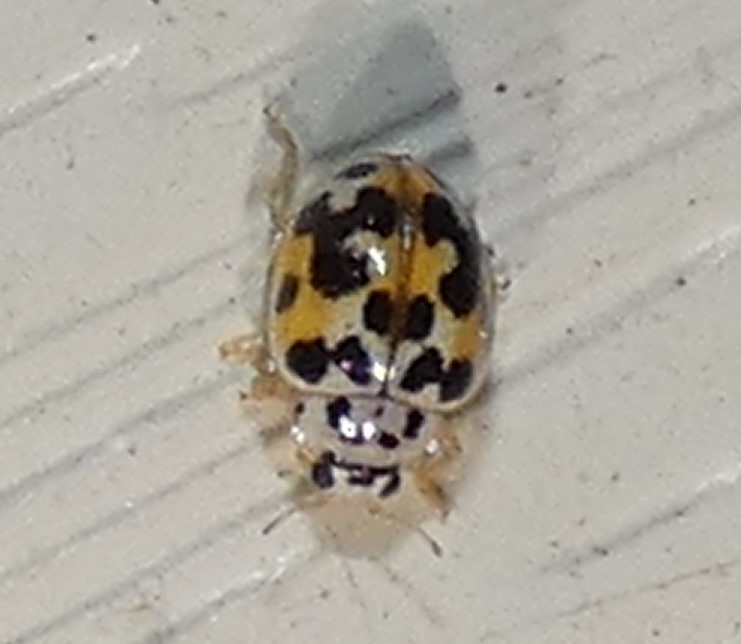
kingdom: Animalia
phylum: Arthropoda
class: Insecta
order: Coleoptera
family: Coccinellidae
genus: Psyllobora
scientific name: Psyllobora vigintimaculata
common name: Ladybird beetle
